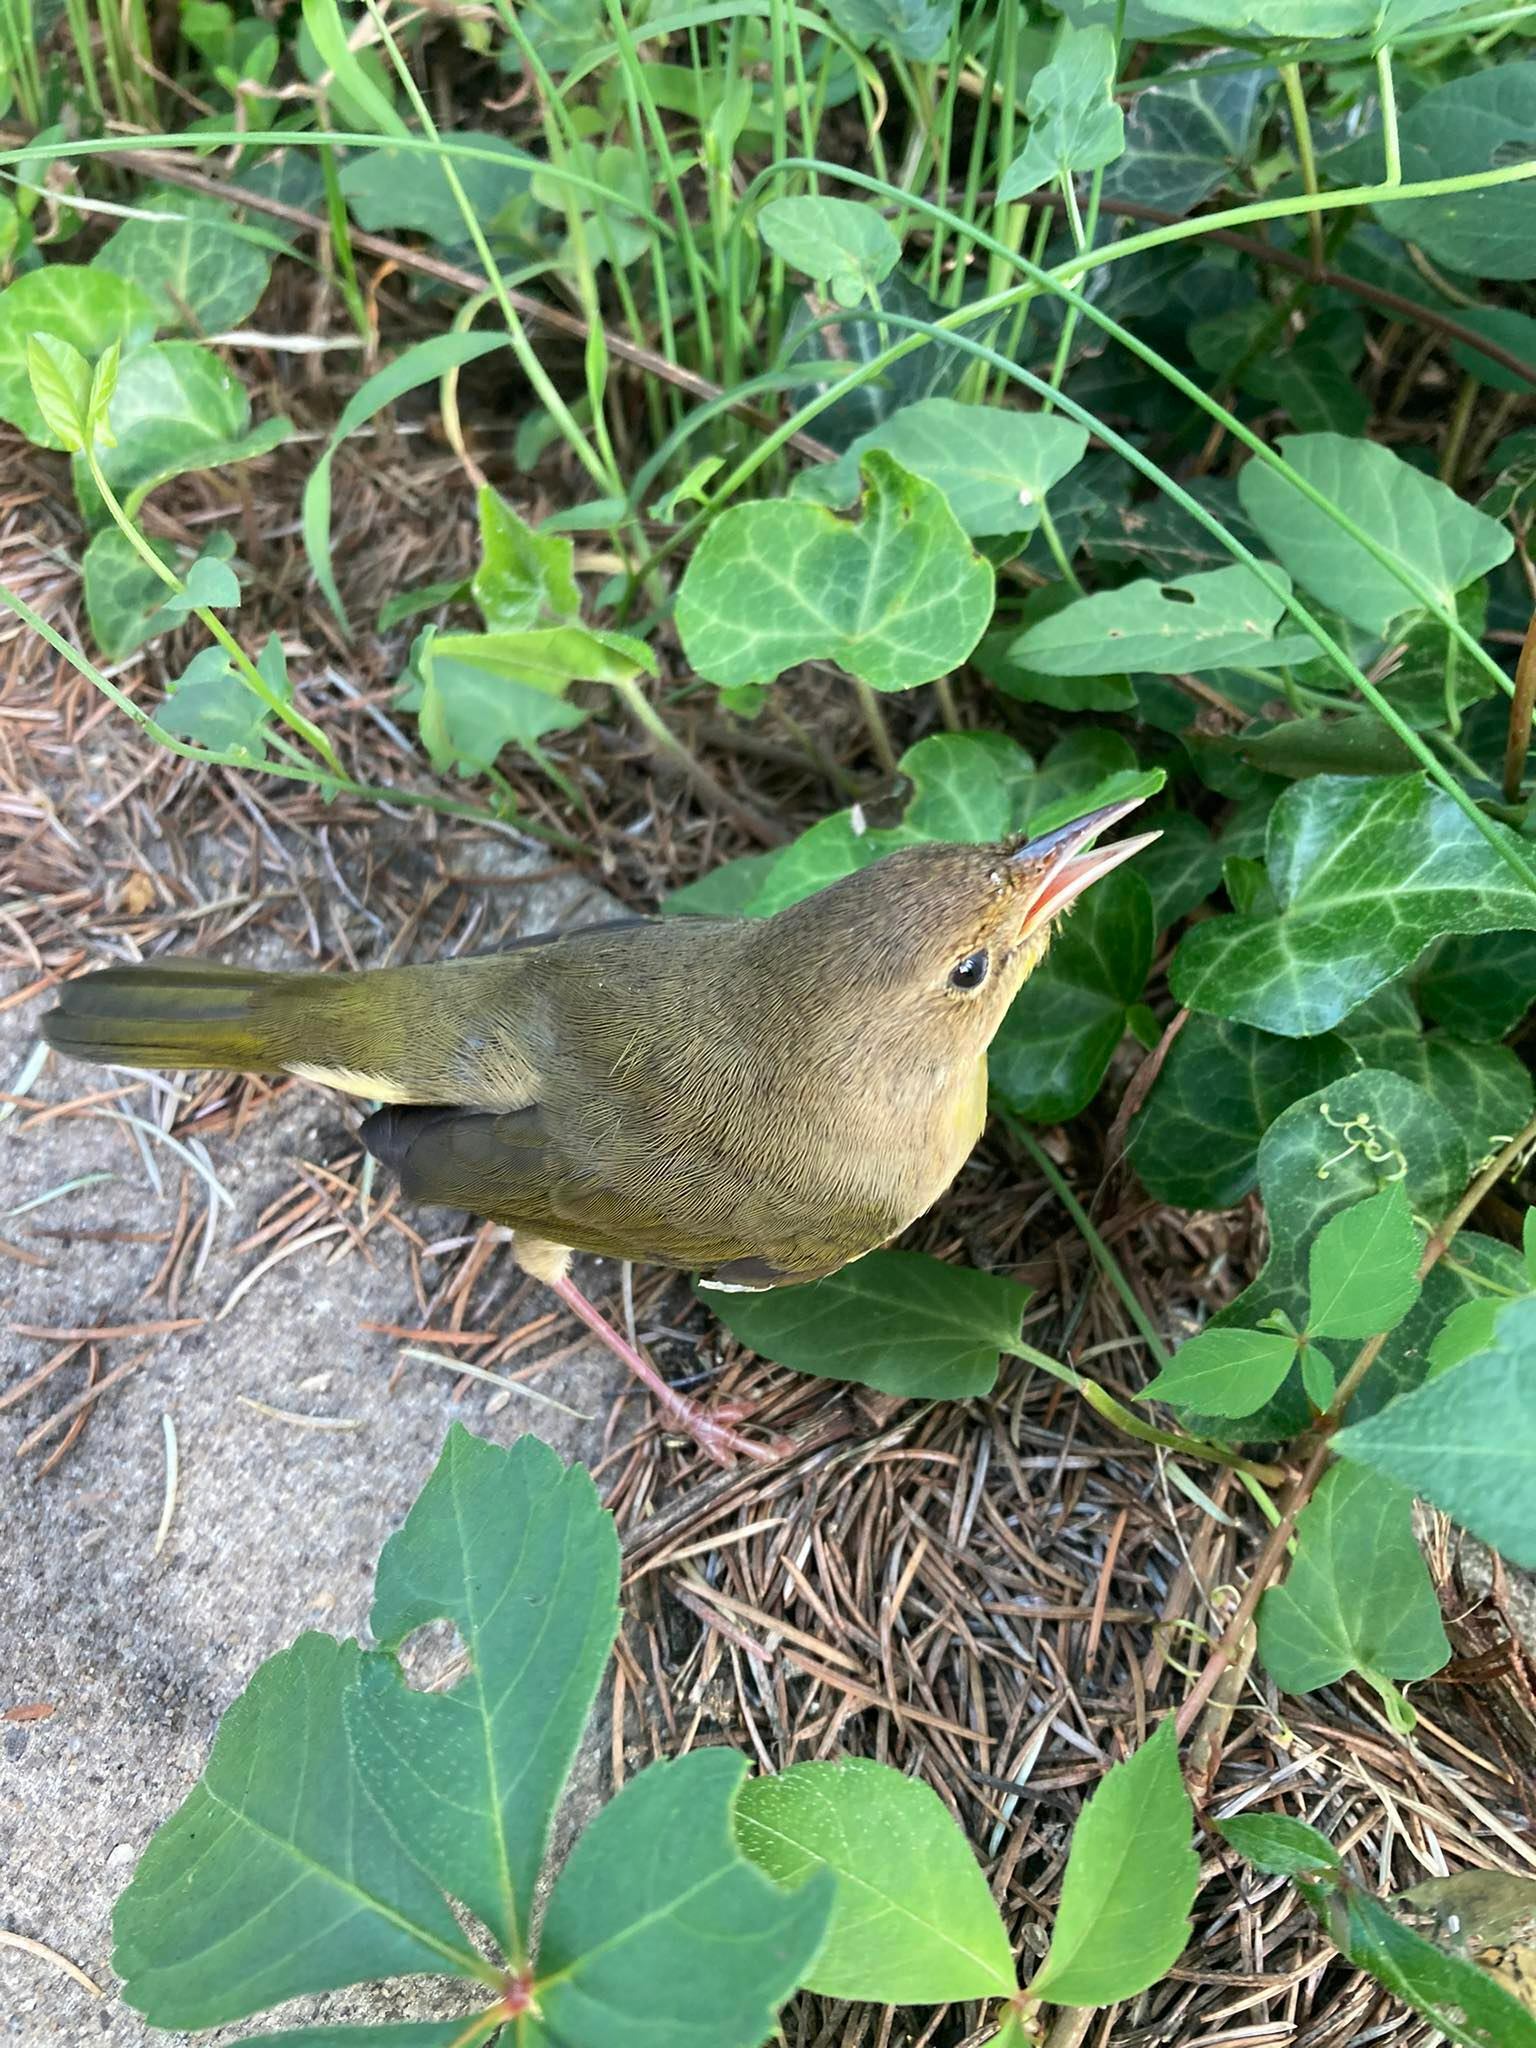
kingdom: Animalia
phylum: Chordata
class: Aves
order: Passeriformes
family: Parulidae
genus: Geothlypis
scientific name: Geothlypis trichas
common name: Common yellowthroat
